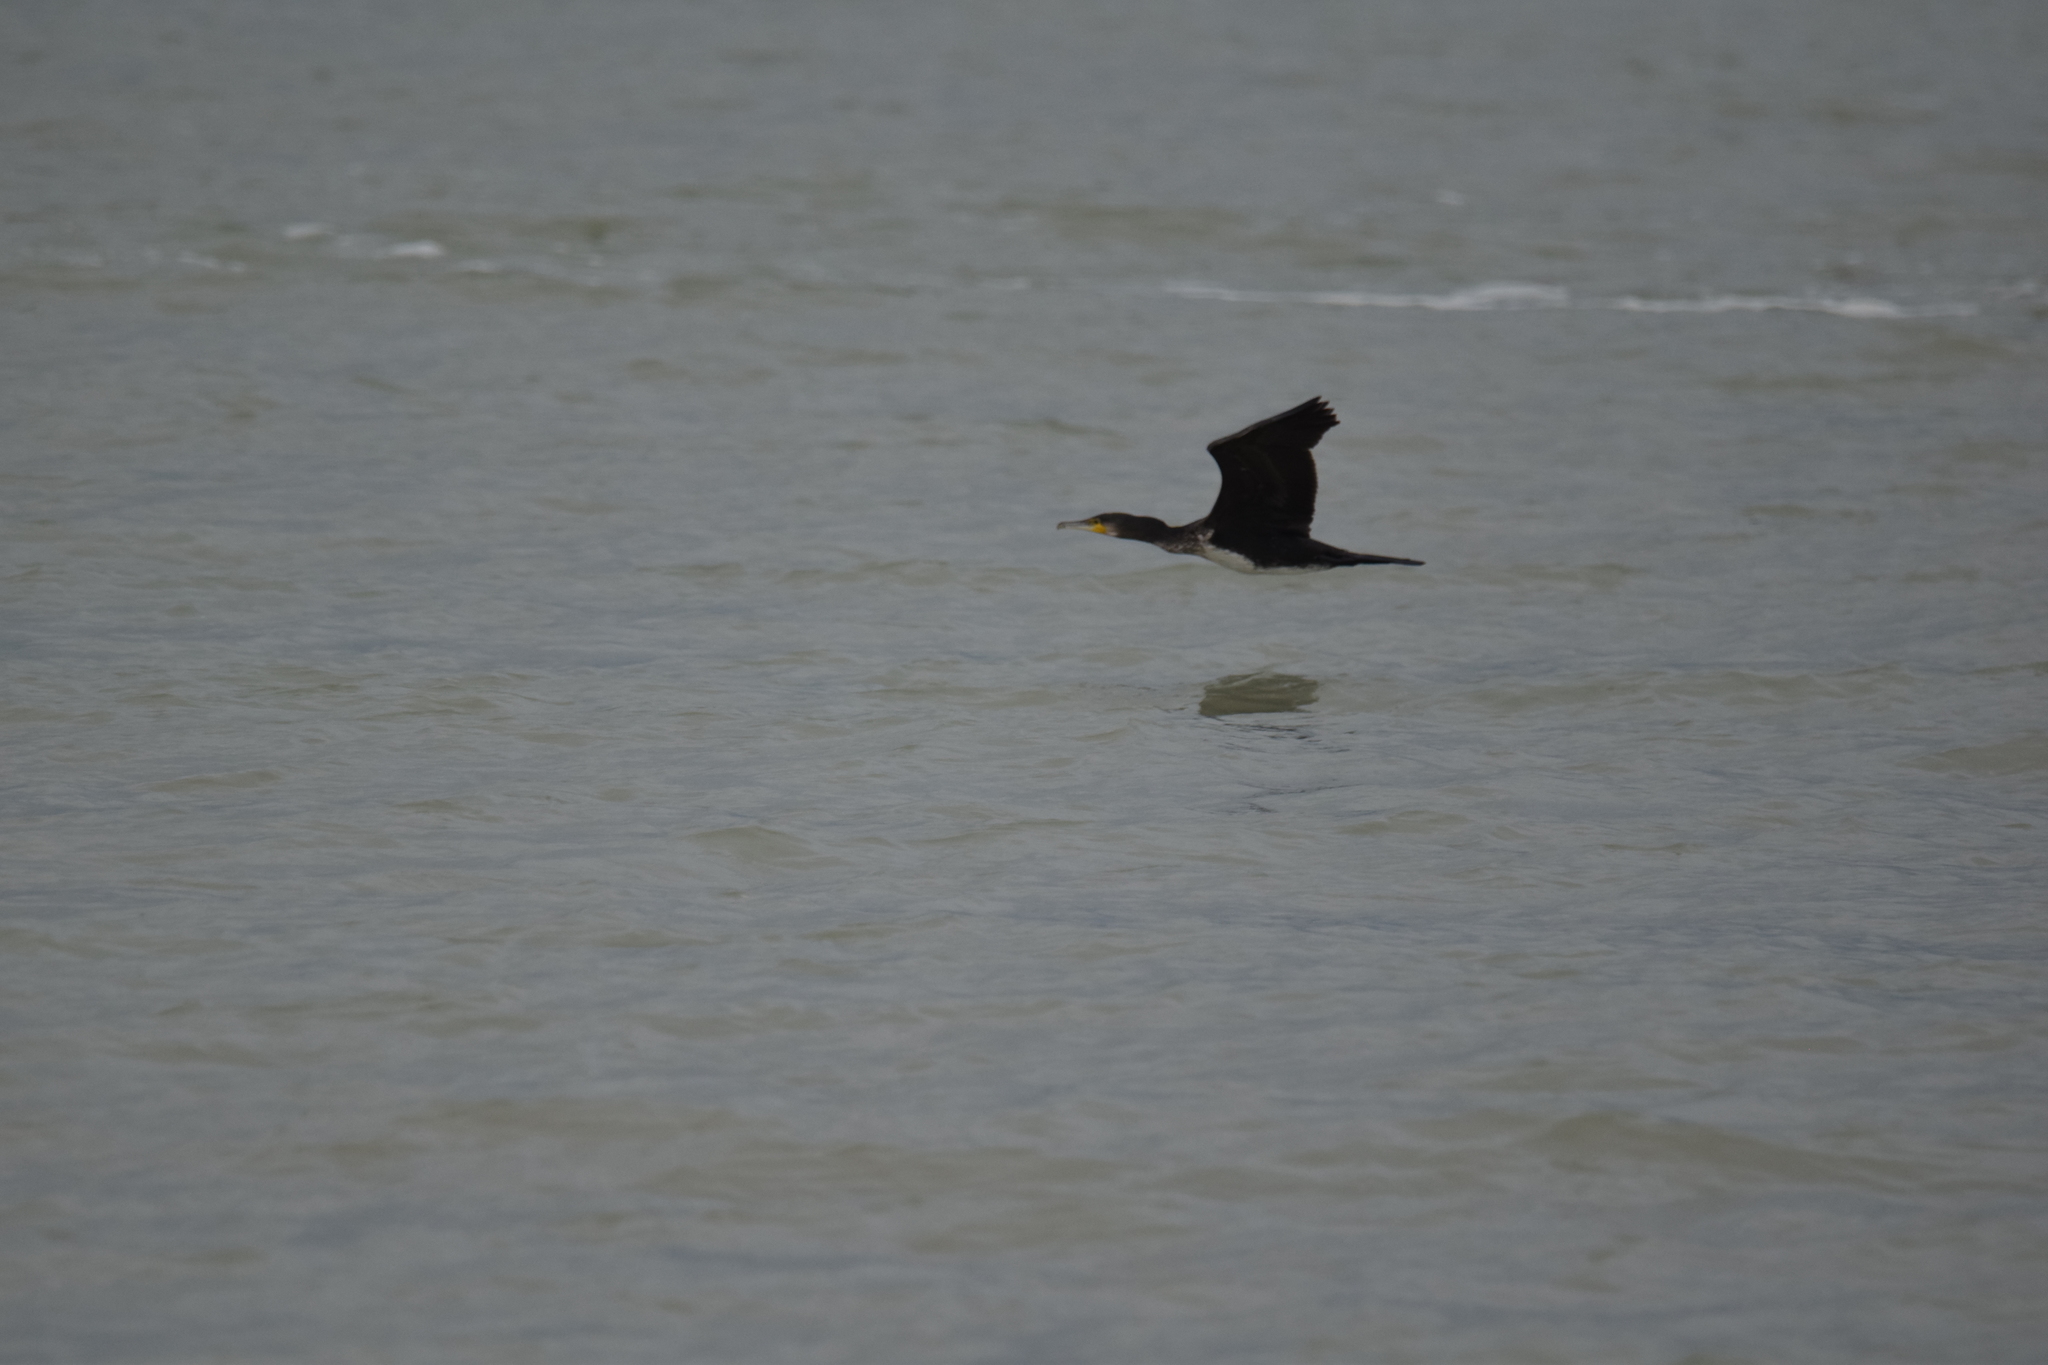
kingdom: Animalia
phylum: Chordata
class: Aves
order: Suliformes
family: Phalacrocoracidae
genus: Phalacrocorax
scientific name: Phalacrocorax carbo
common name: Great cormorant
